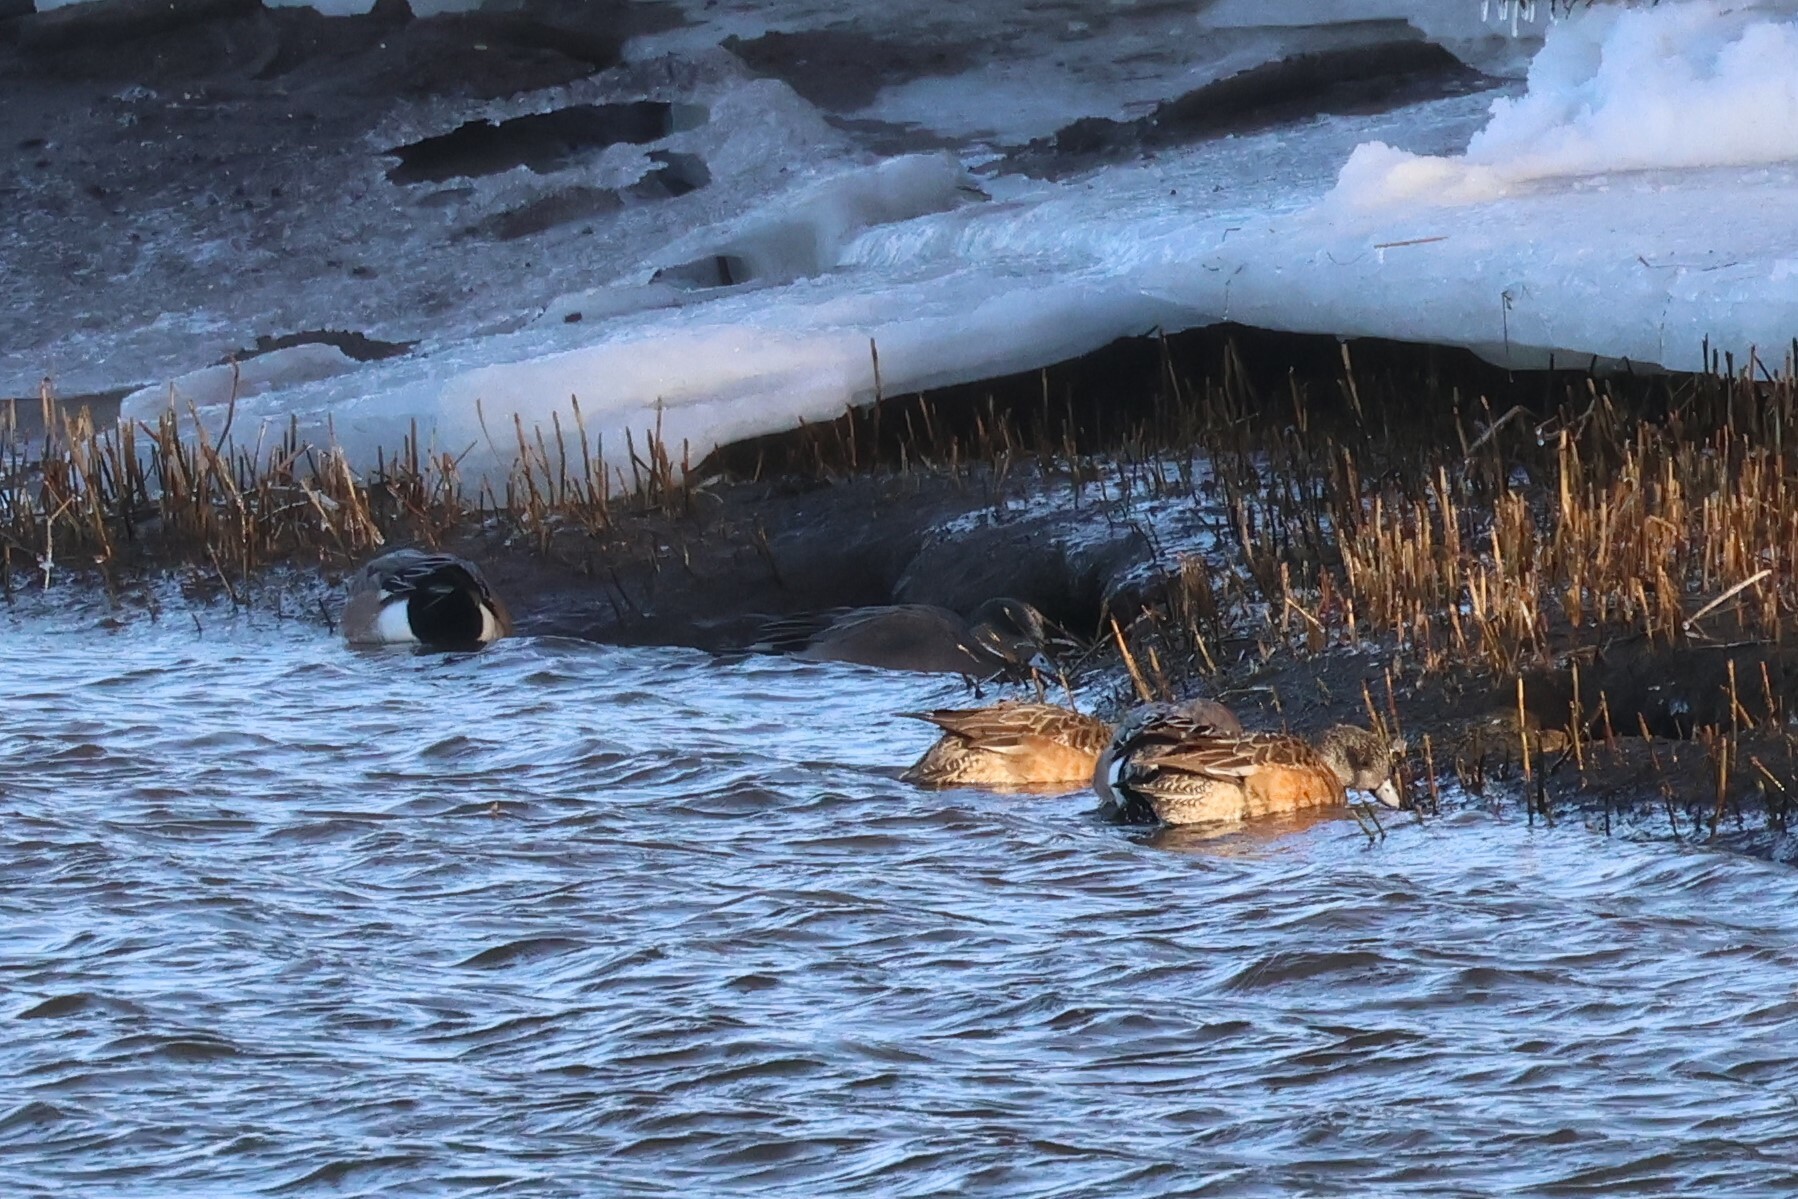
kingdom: Animalia
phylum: Chordata
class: Aves
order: Anseriformes
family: Anatidae
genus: Mareca
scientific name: Mareca americana
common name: American wigeon
